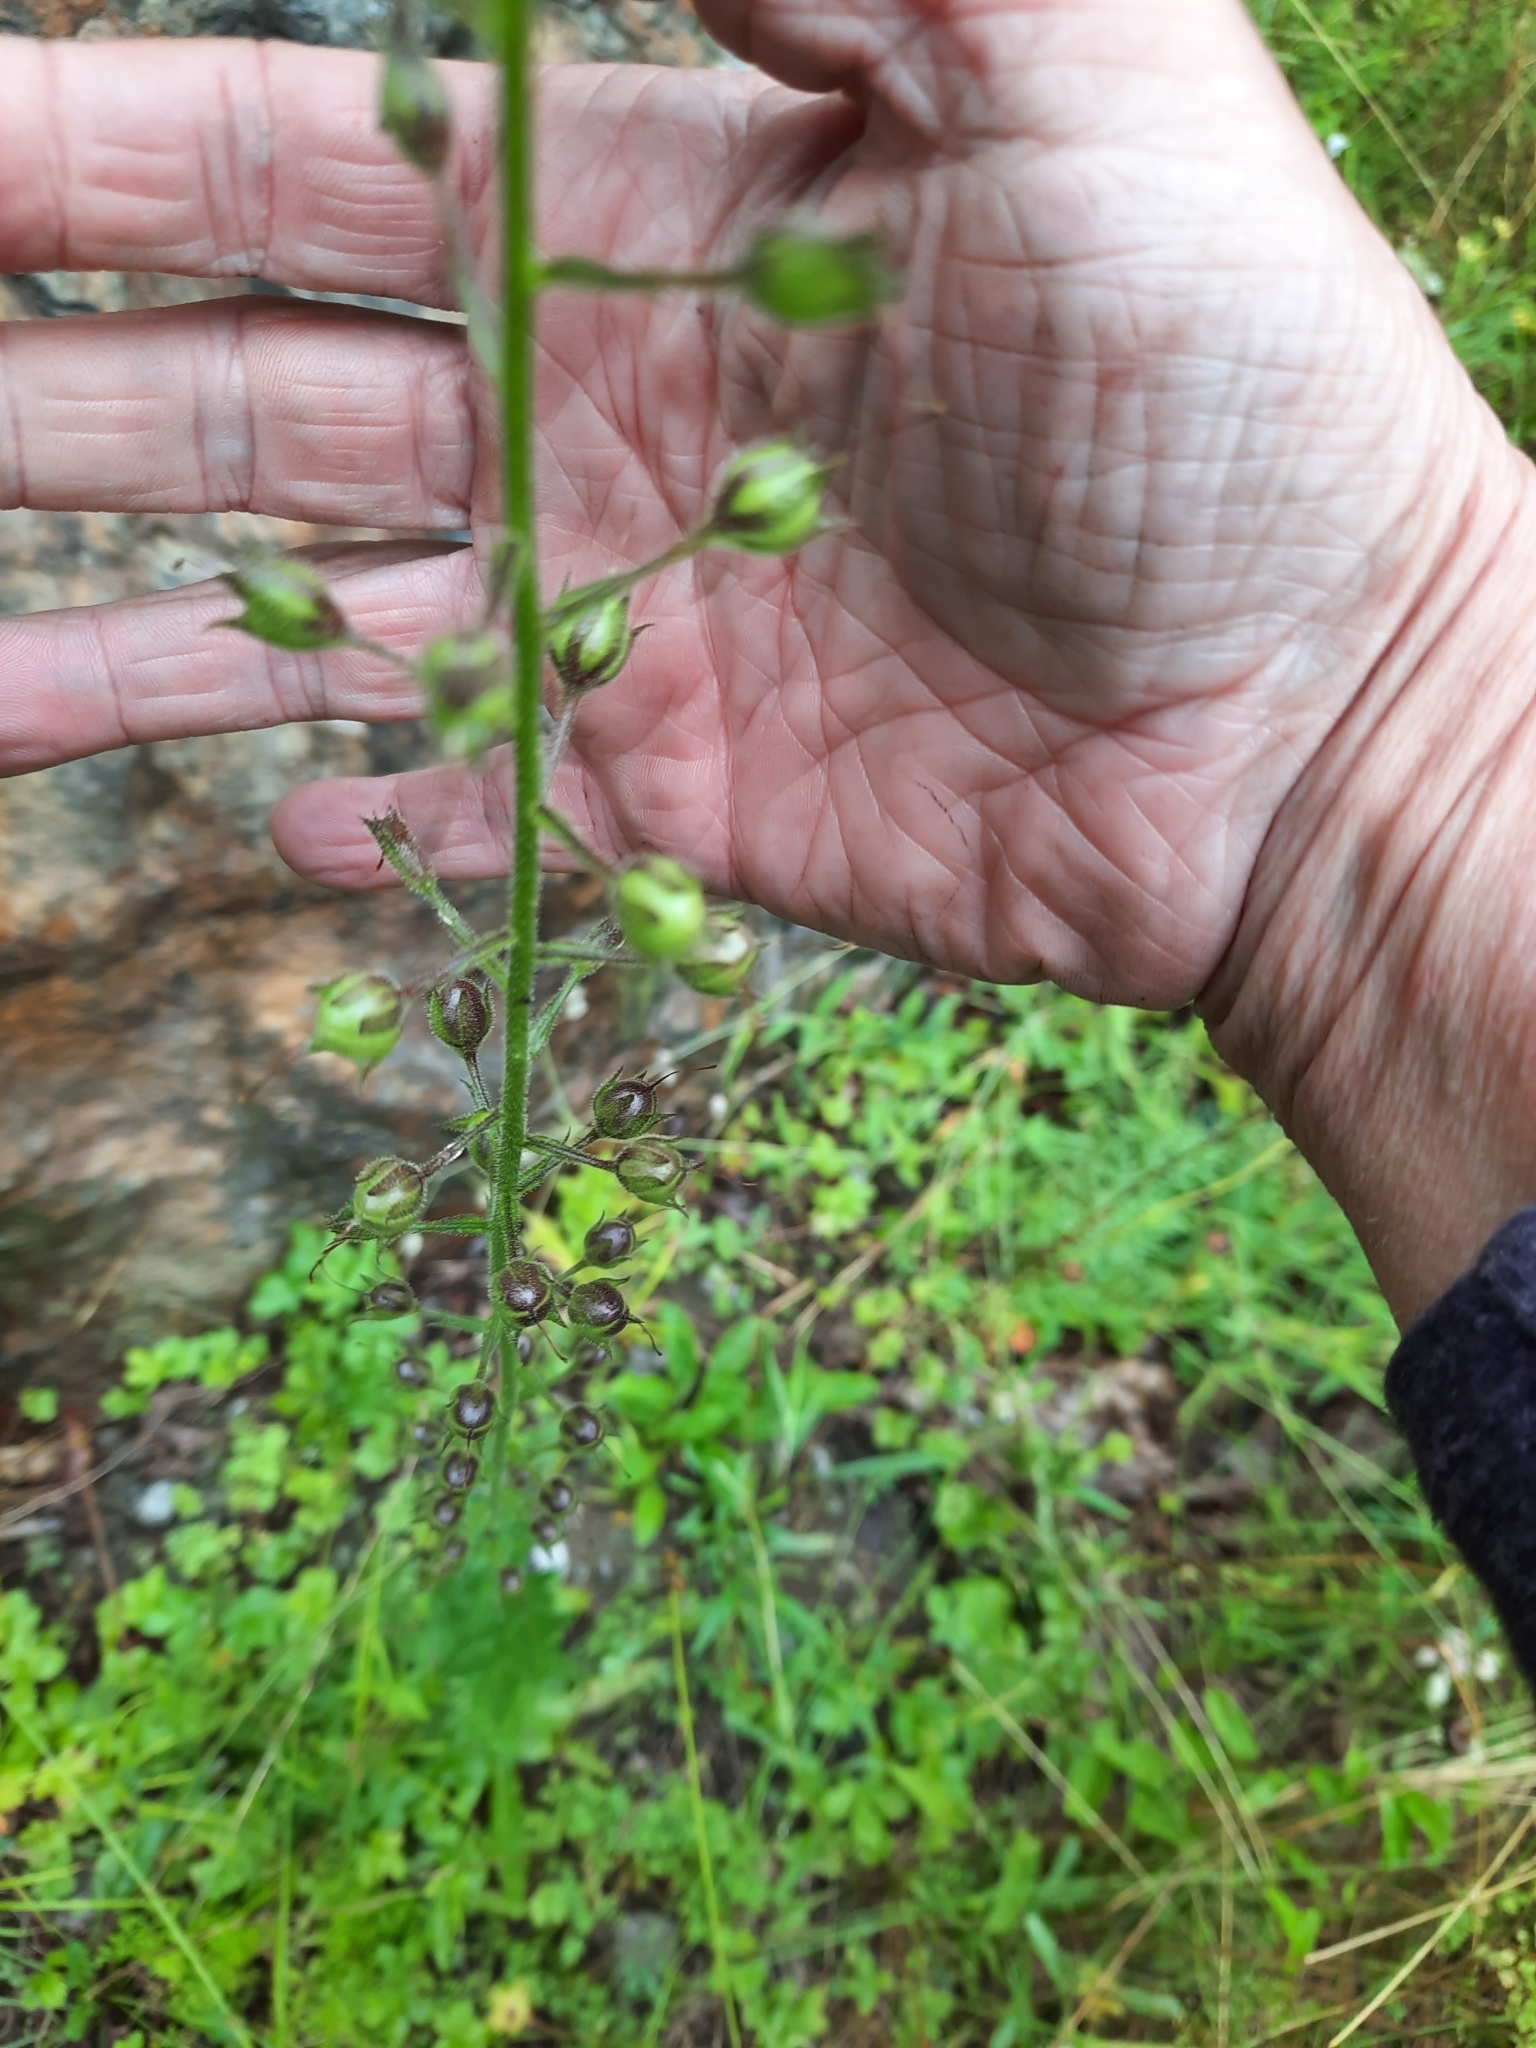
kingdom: Plantae
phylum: Tracheophyta
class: Magnoliopsida
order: Lamiales
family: Scrophulariaceae
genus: Verbascum
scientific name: Verbascum blattaria
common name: Moth mullein
